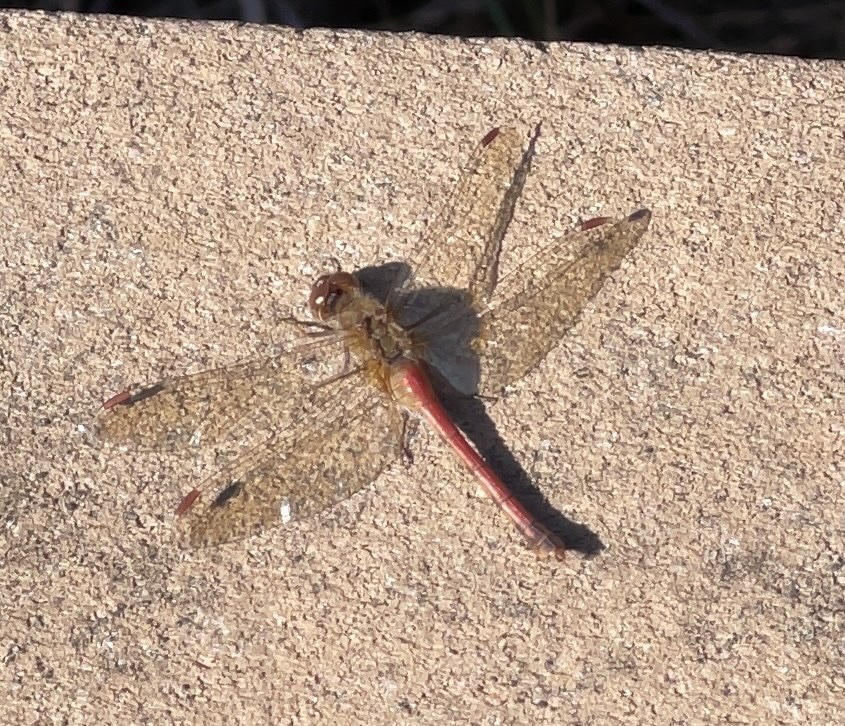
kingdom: Animalia
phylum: Arthropoda
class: Insecta
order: Odonata
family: Libellulidae
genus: Sympetrum
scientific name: Sympetrum vicinum
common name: Autumn meadowhawk
